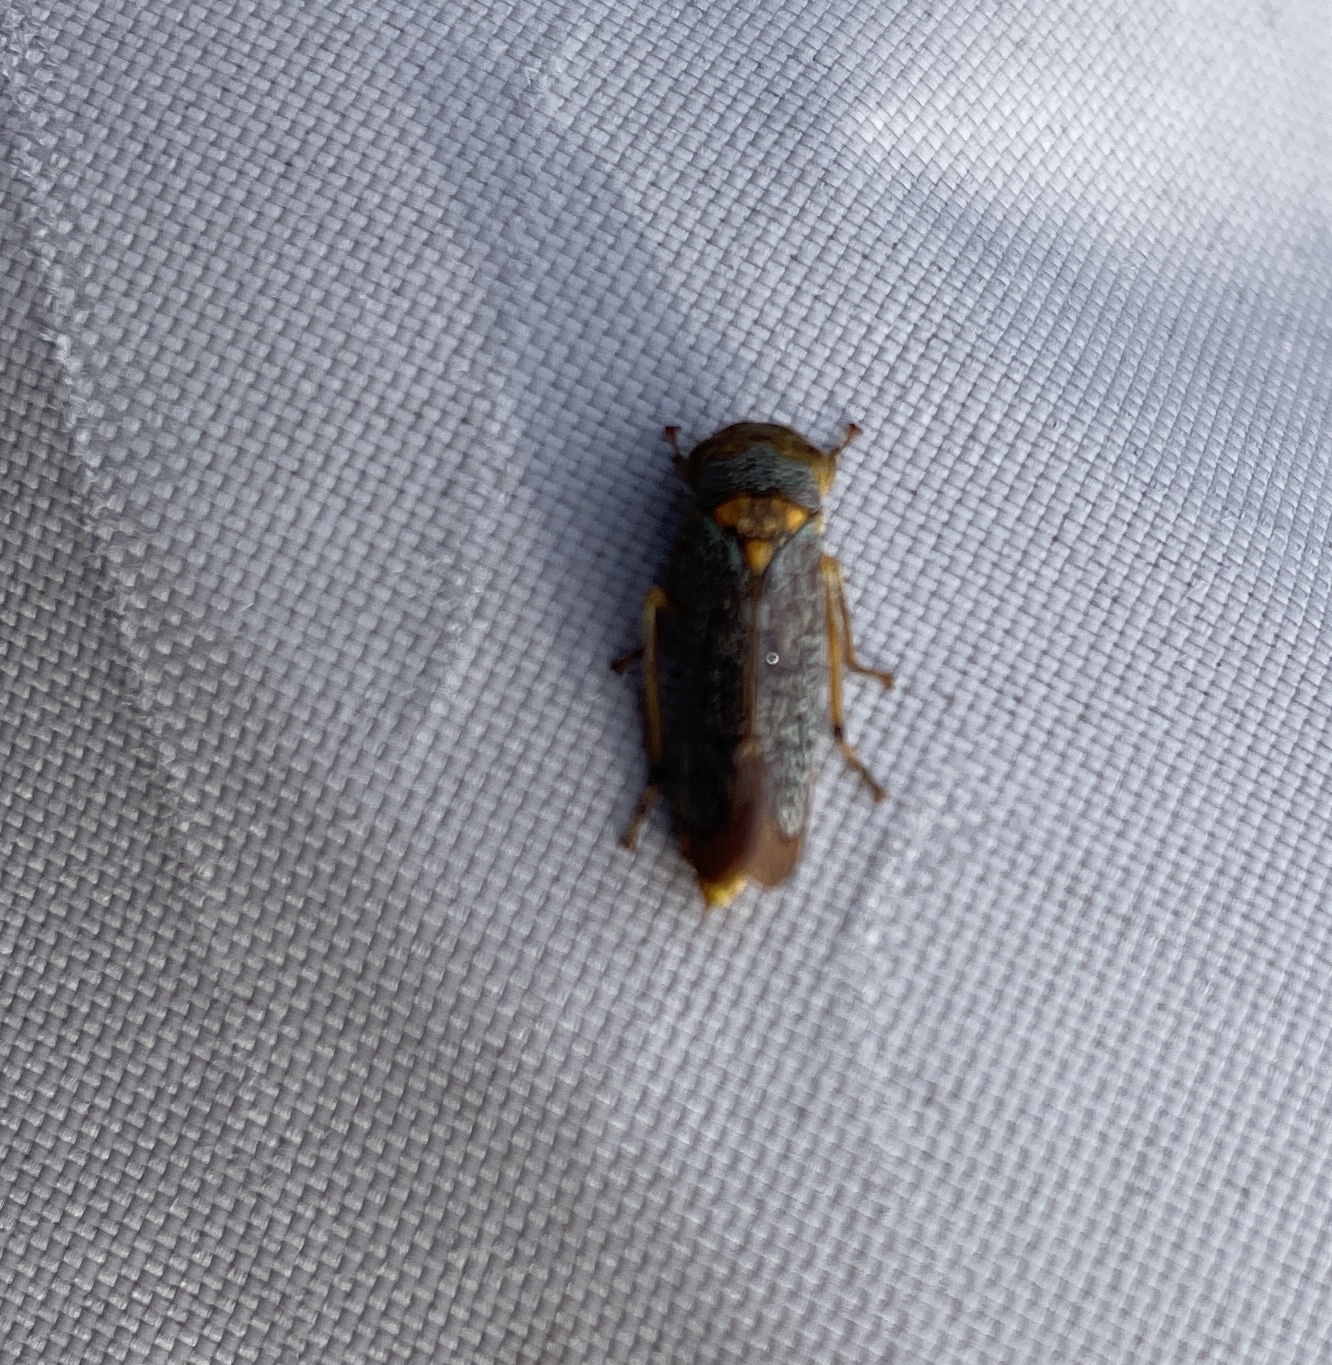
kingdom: Animalia
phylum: Arthropoda
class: Insecta
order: Hemiptera
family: Cicadellidae
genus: Oncometopia
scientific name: Oncometopia orbona
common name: Broad-headed sharpshooter
